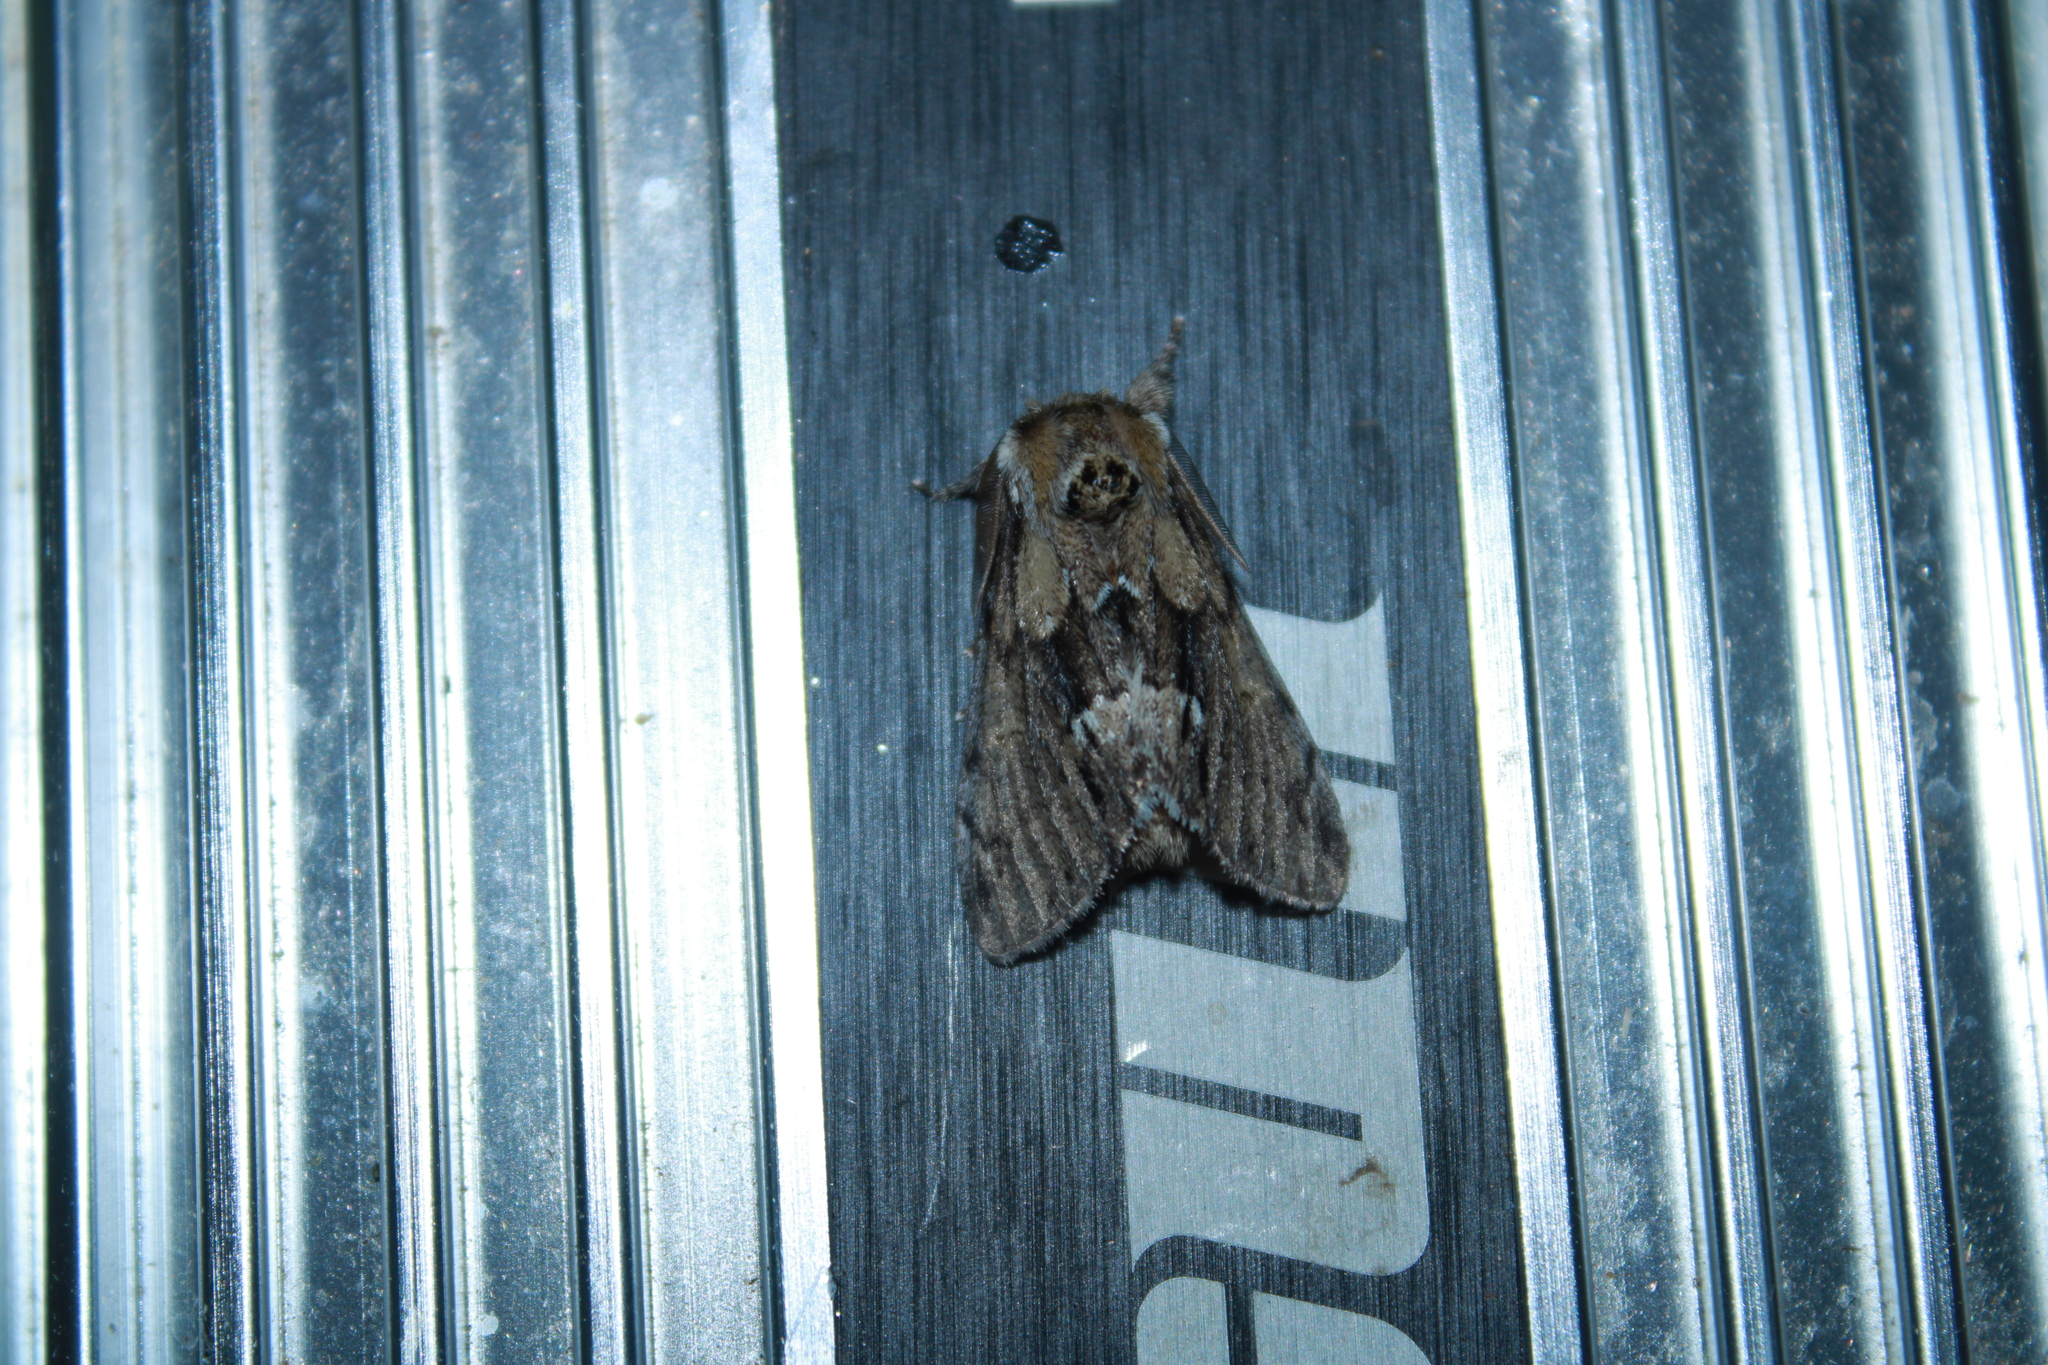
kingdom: Animalia
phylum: Arthropoda
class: Insecta
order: Lepidoptera
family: Notodontidae
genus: Paraeschra
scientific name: Paraeschra georgica
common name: Georgian prominent
